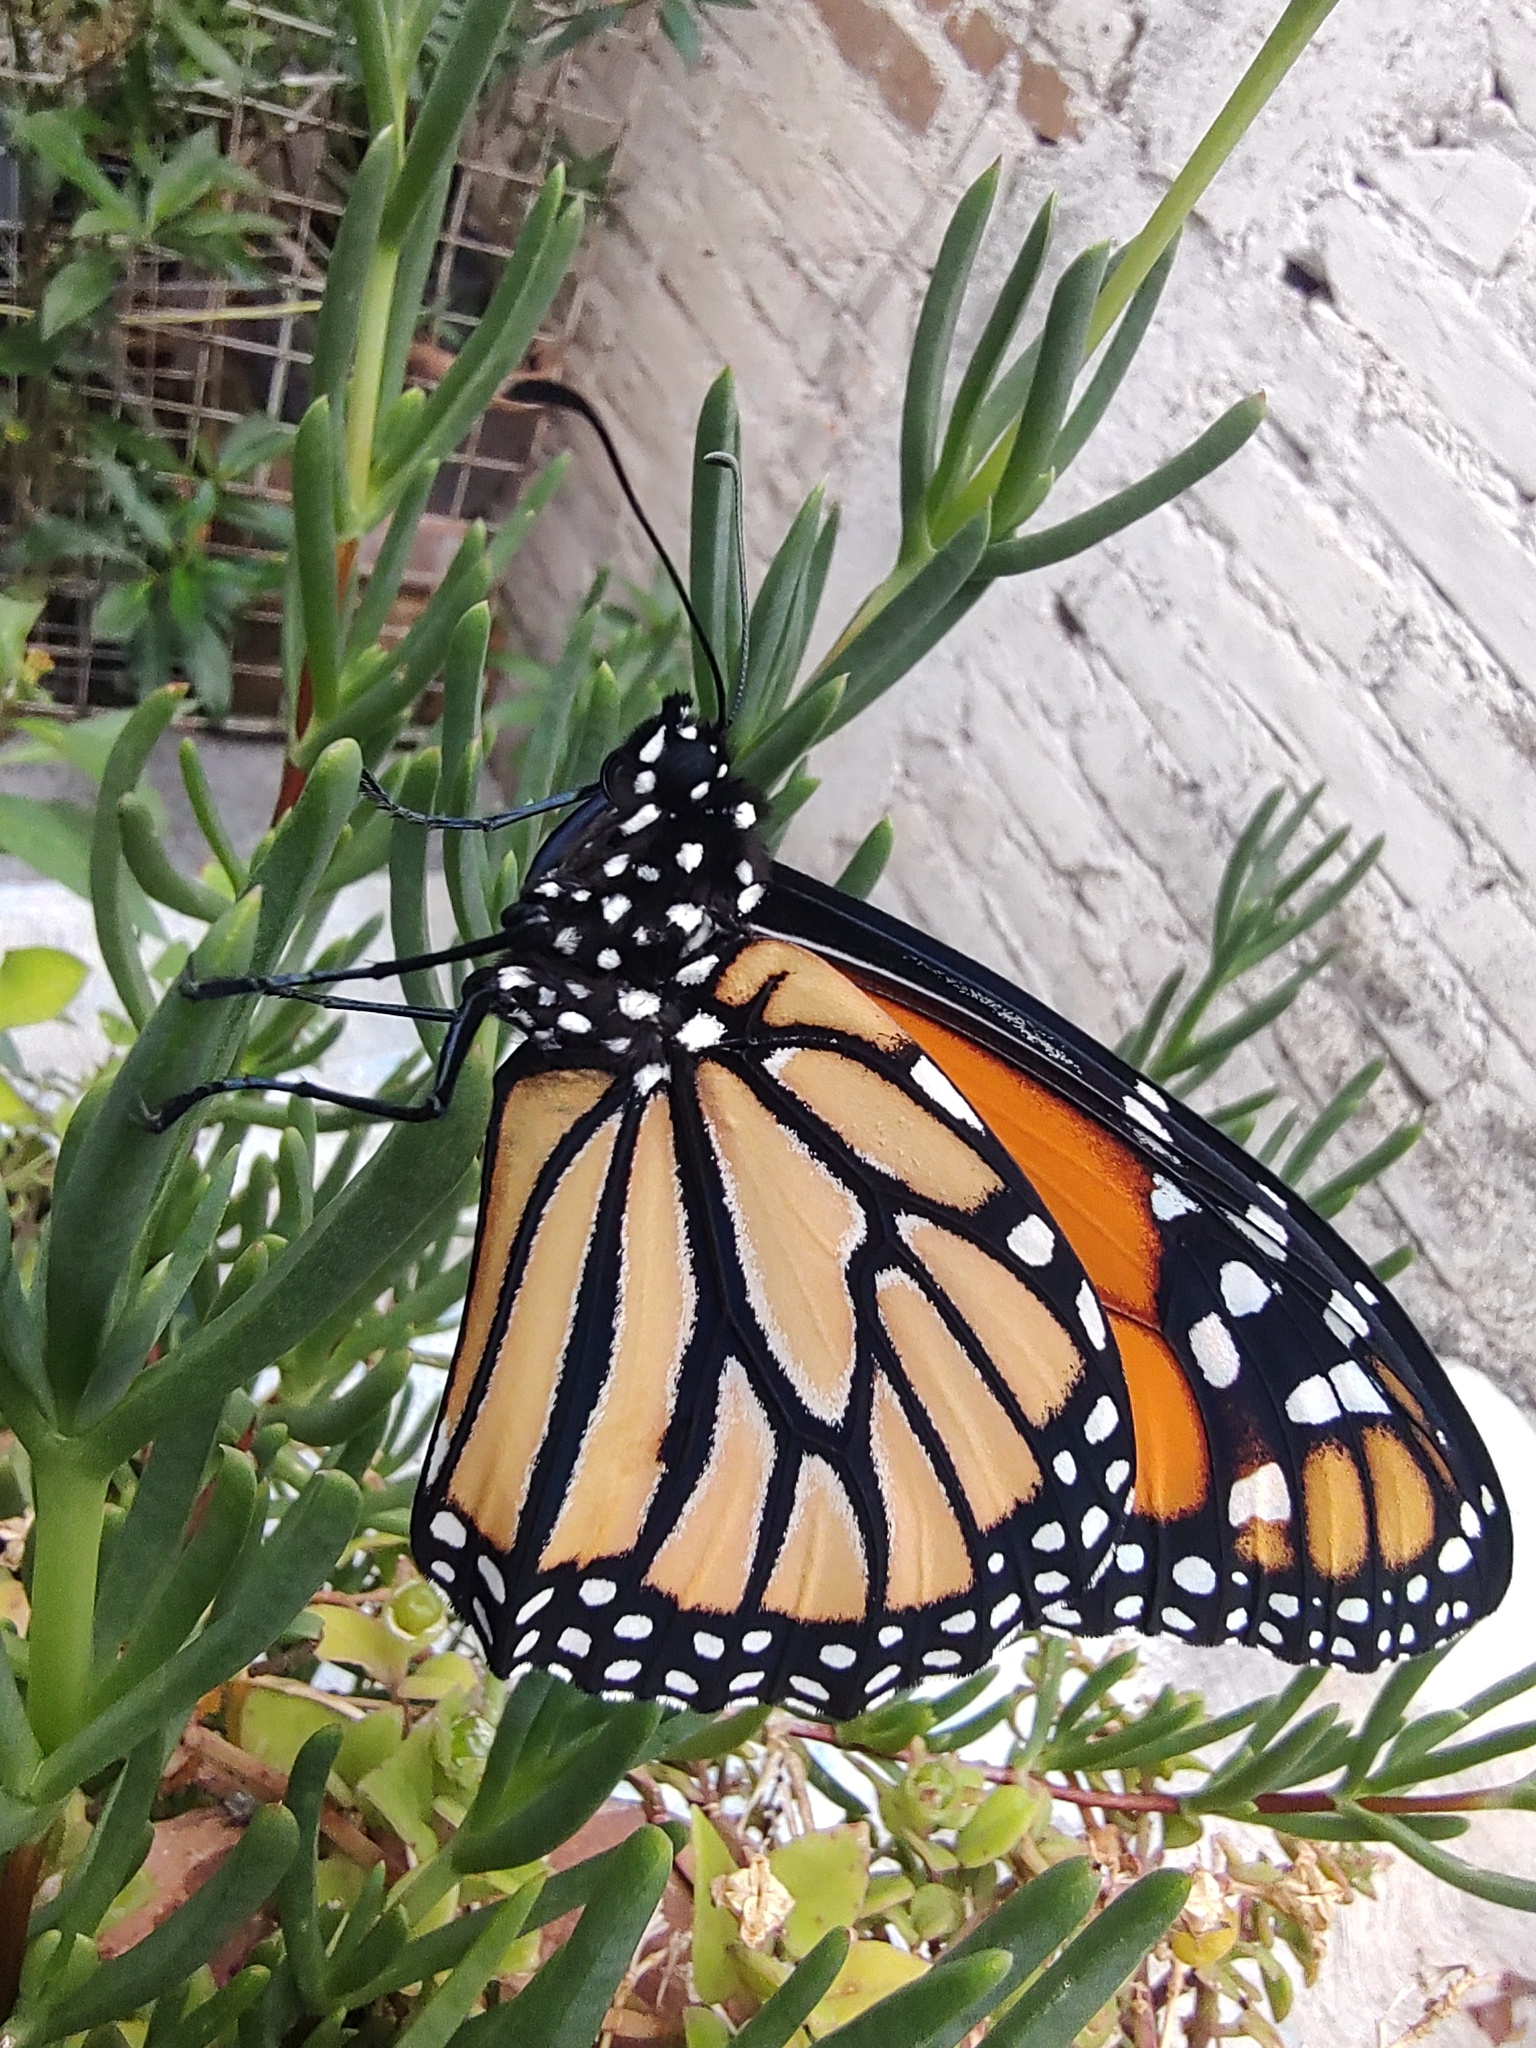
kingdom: Animalia
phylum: Arthropoda
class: Insecta
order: Lepidoptera
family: Nymphalidae
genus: Danaus
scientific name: Danaus plexippus
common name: Monarch
